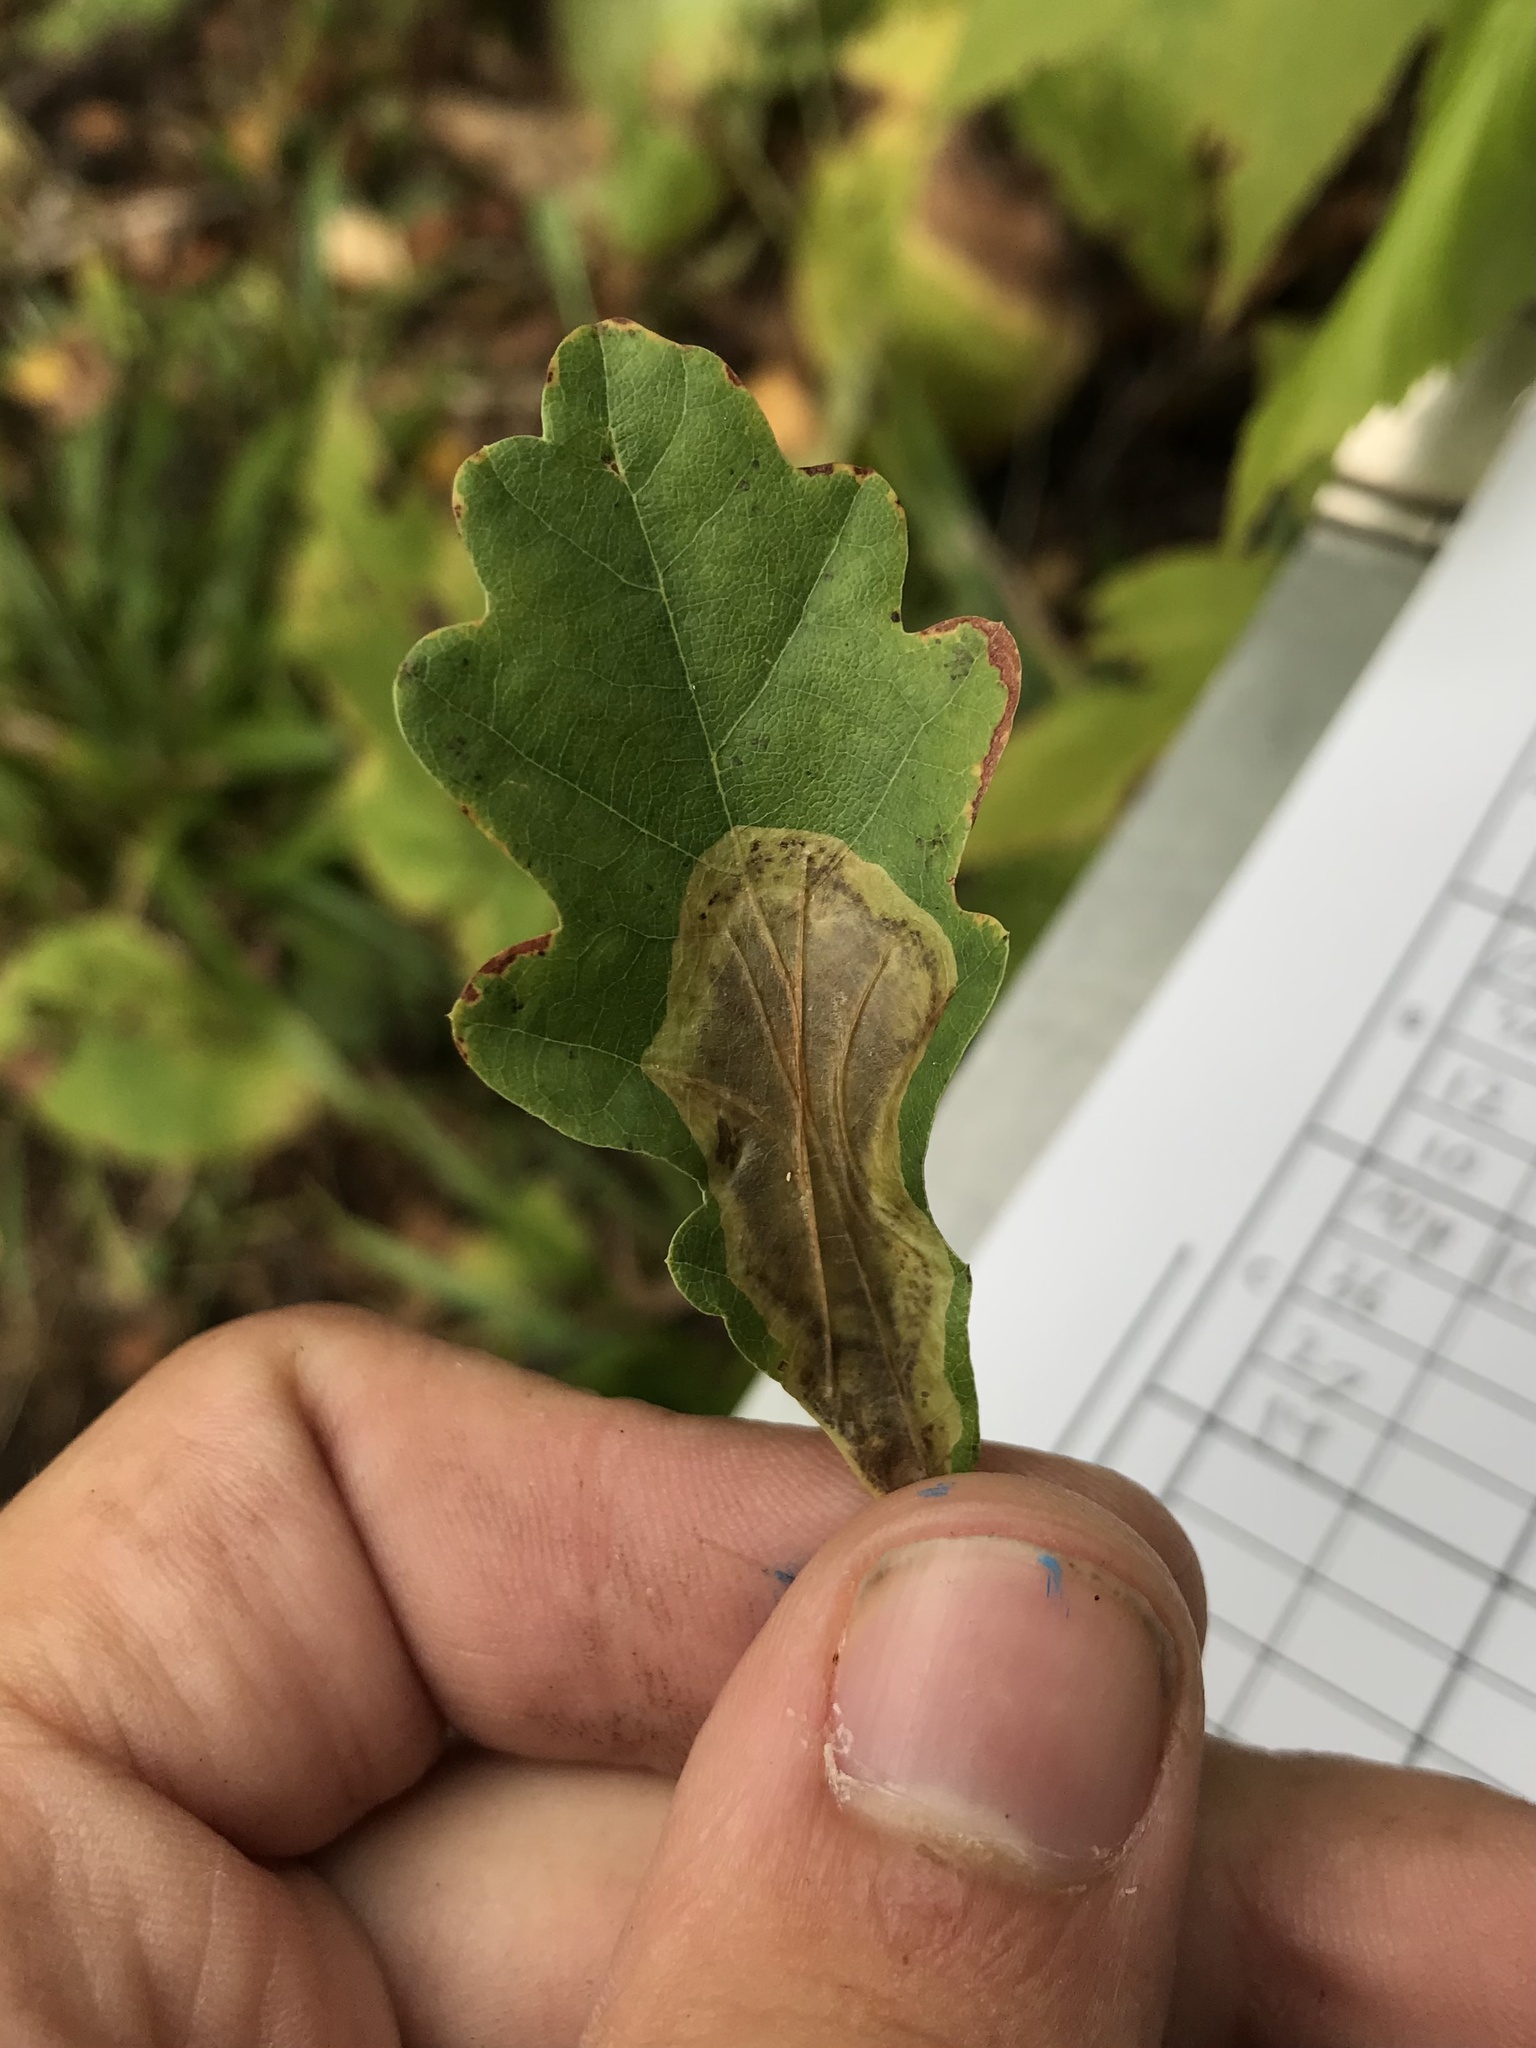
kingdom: Animalia
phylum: Arthropoda
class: Insecta
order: Lepidoptera
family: Gracillariidae
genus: Cameraria
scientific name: Cameraria fletcherella
